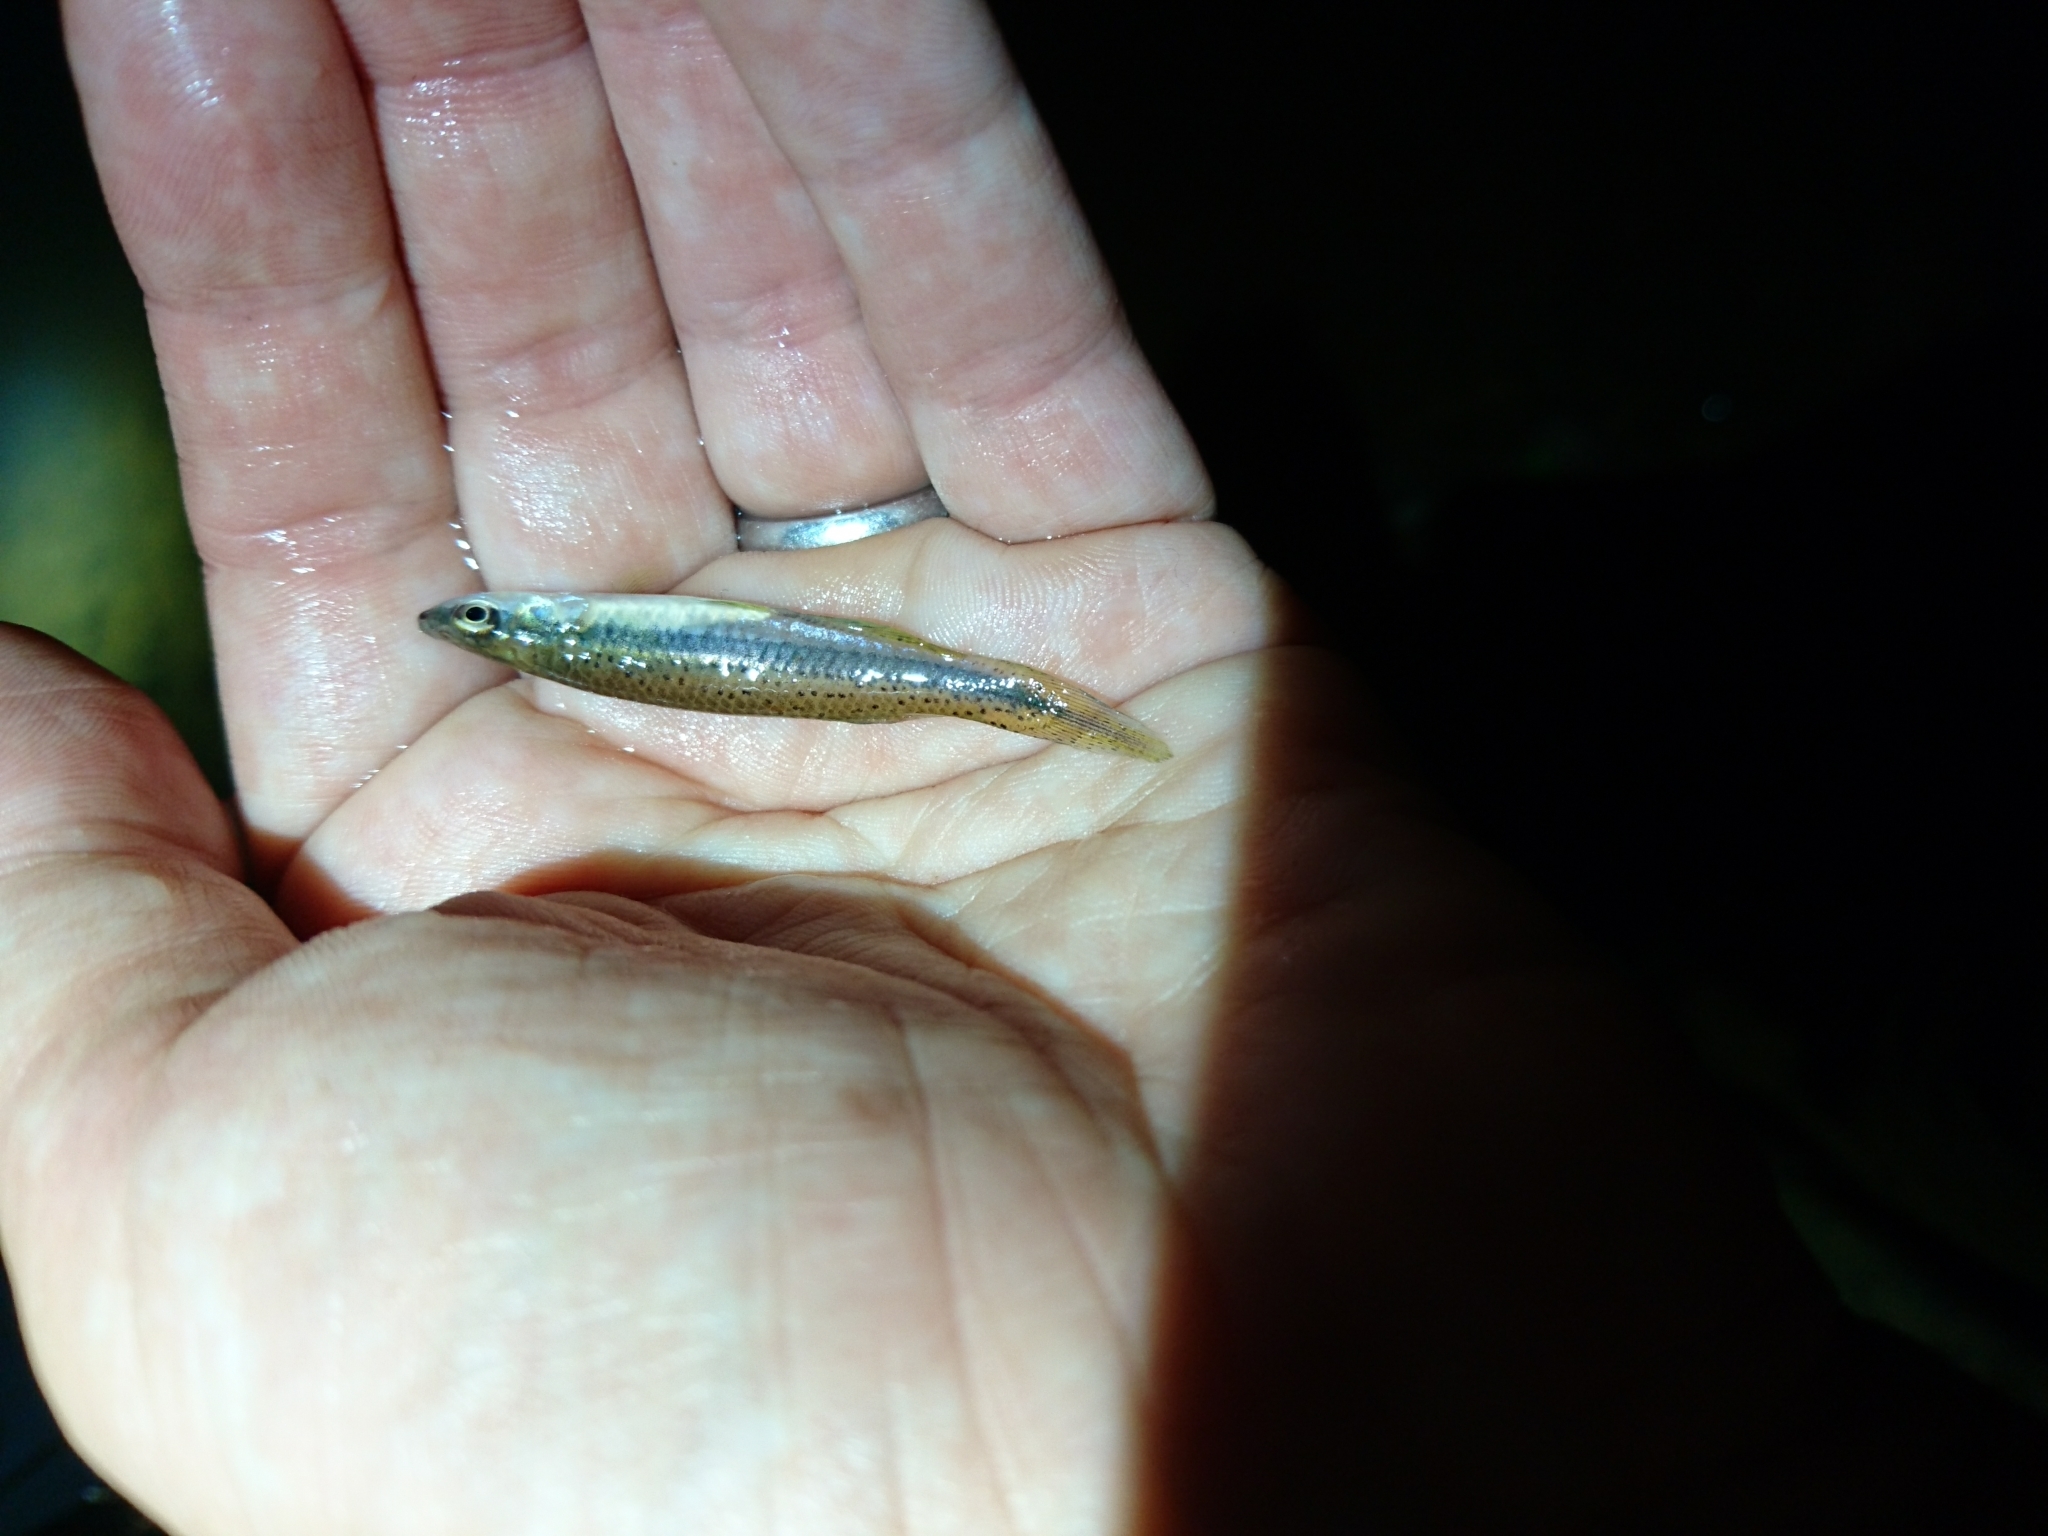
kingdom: Animalia
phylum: Chordata
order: Cyprinodontiformes
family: Fundulidae
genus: Fundulus
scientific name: Fundulus olivaceus
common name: Blackspotted topminnow
